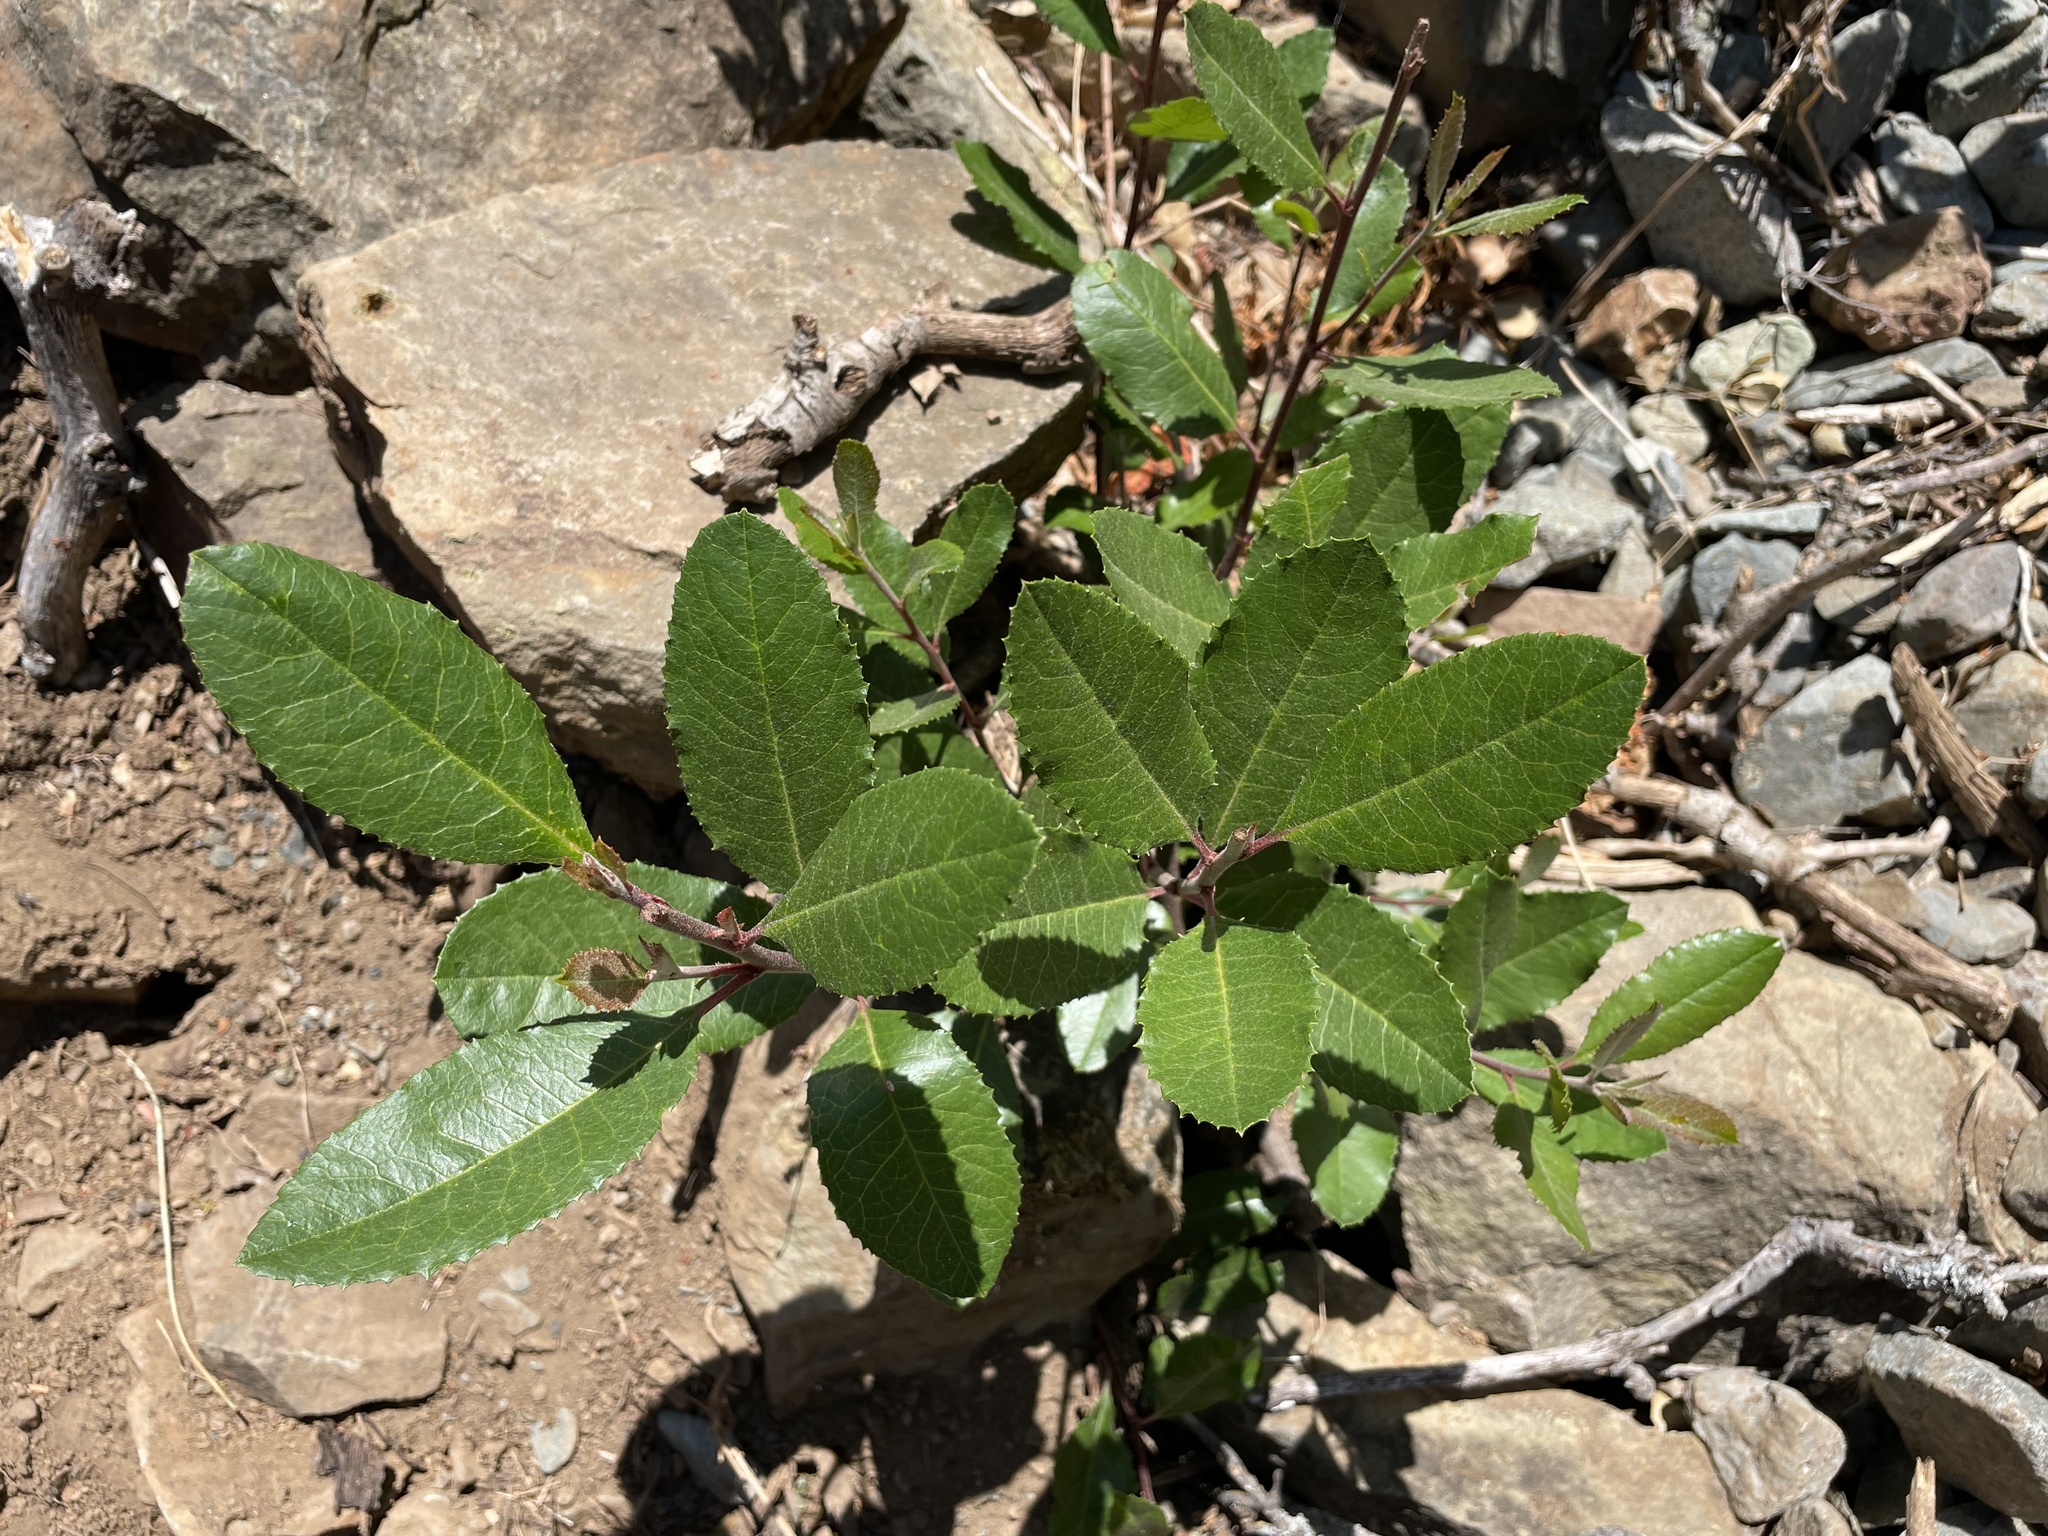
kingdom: Plantae
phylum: Tracheophyta
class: Magnoliopsida
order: Rosales
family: Rosaceae
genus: Heteromeles
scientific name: Heteromeles arbutifolia
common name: California-holly
